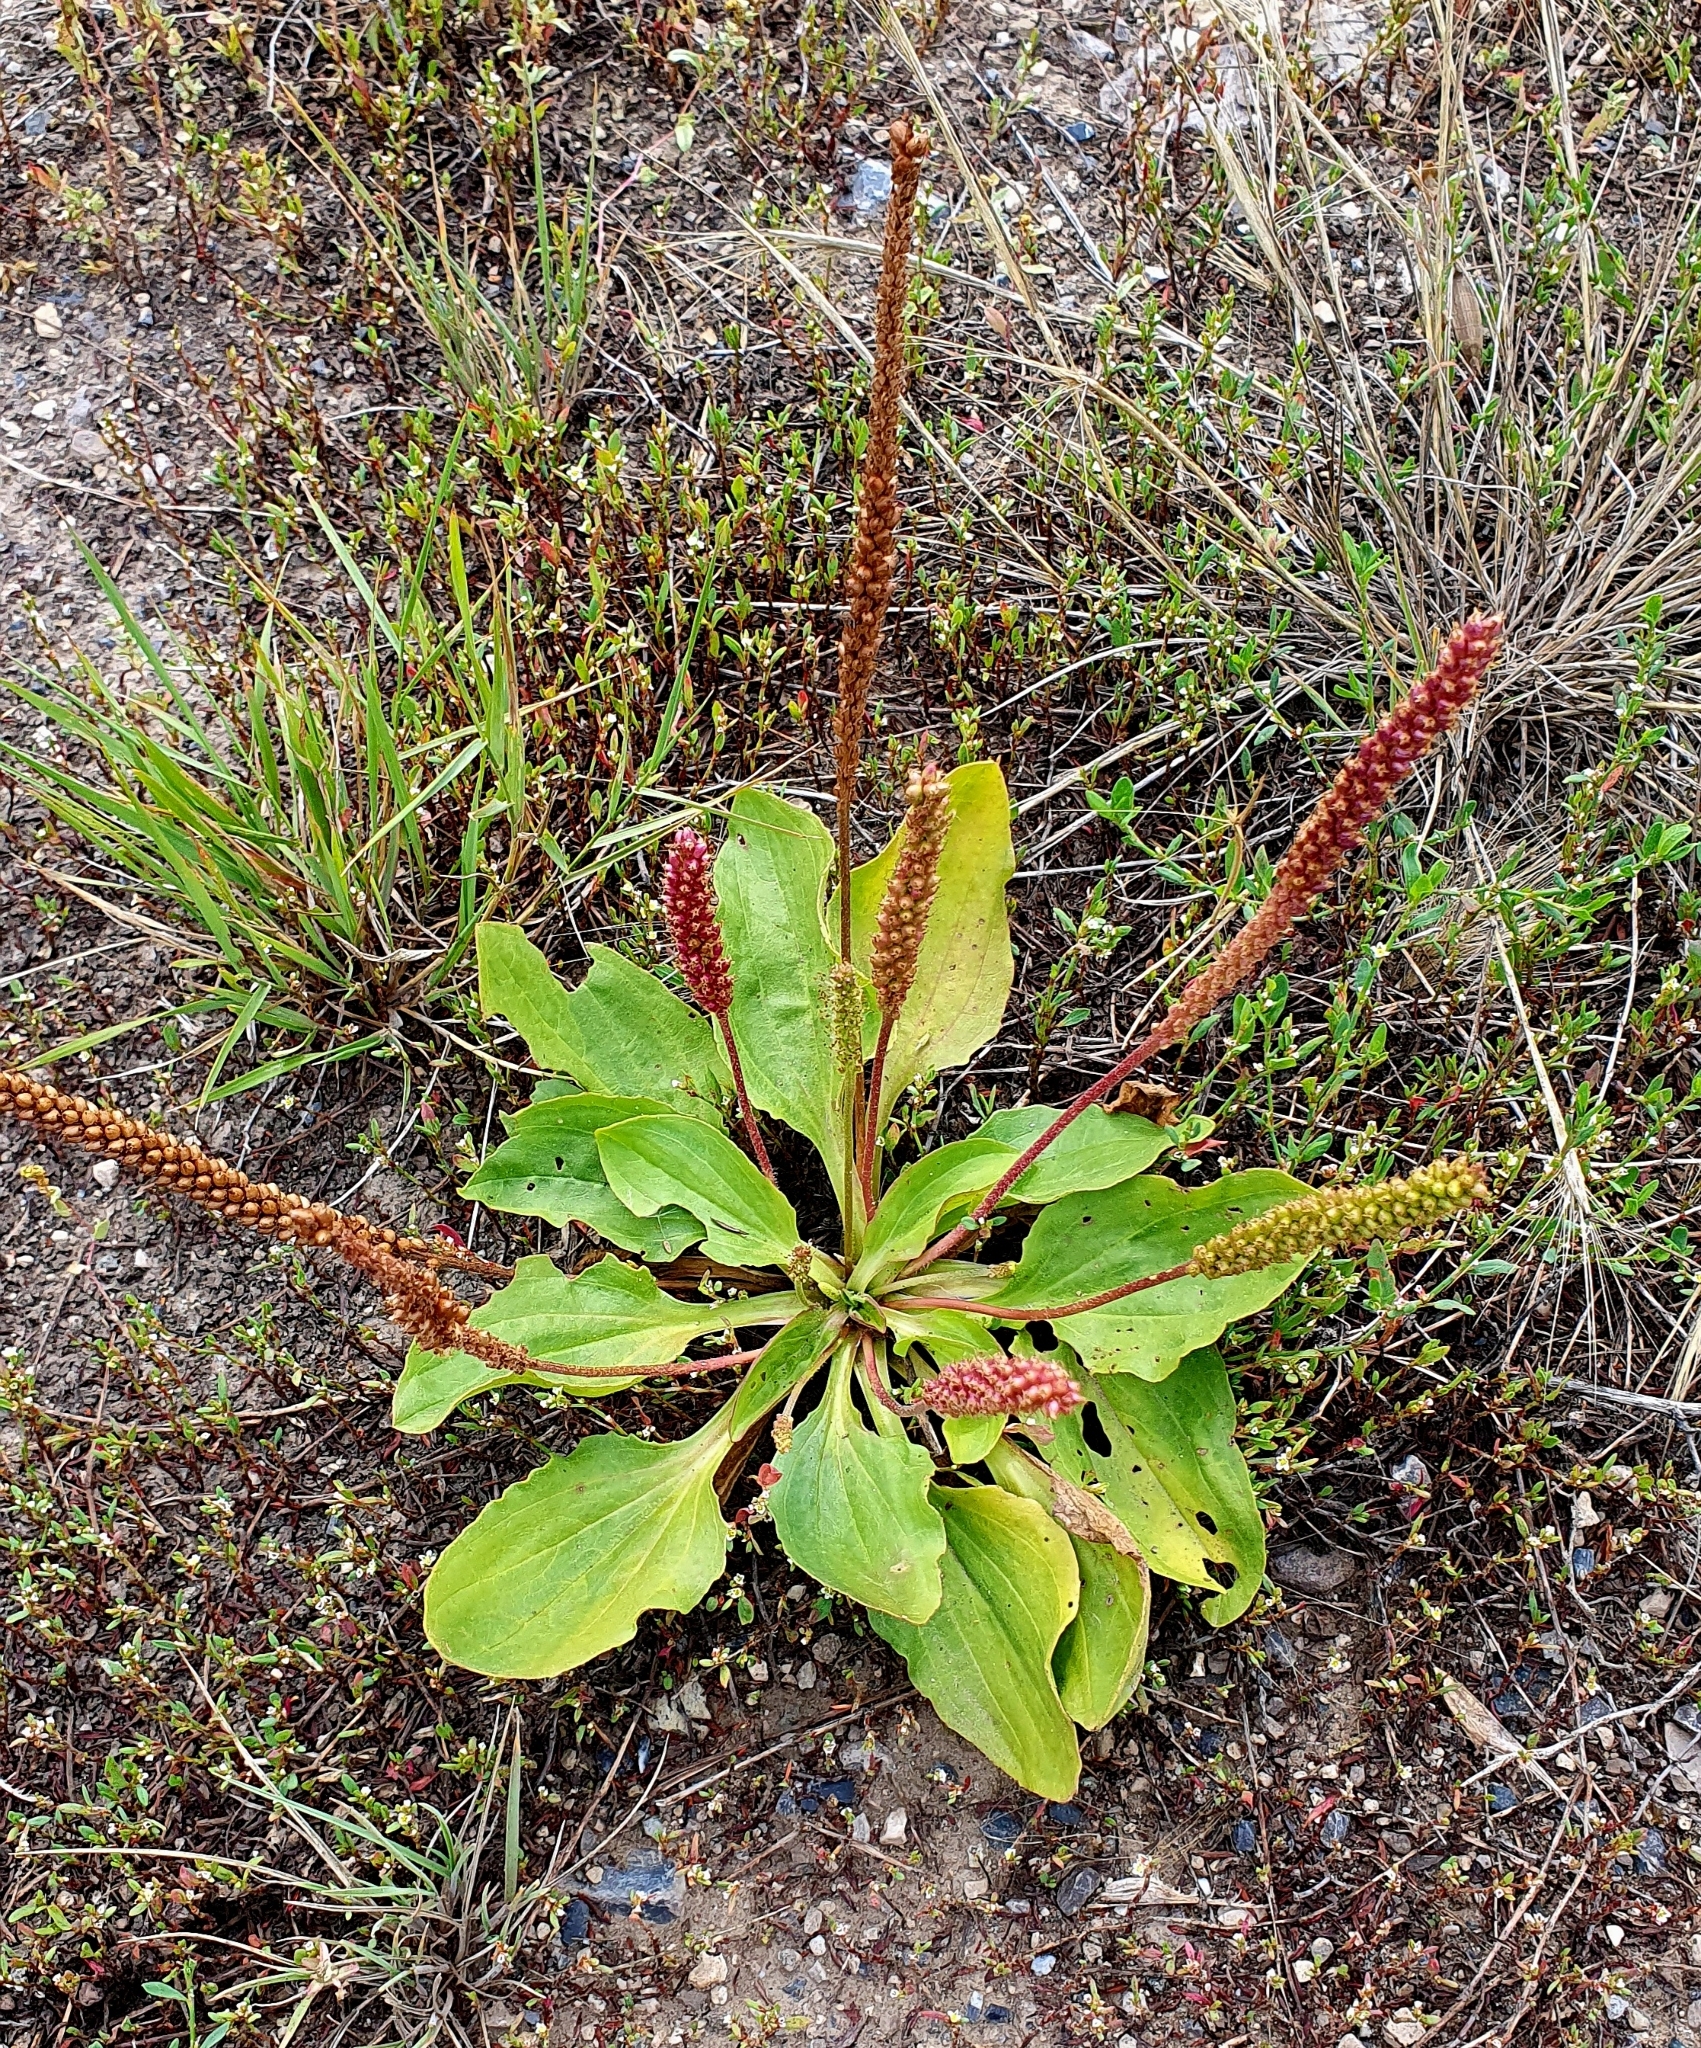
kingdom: Plantae
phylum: Tracheophyta
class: Magnoliopsida
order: Lamiales
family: Plantaginaceae
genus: Plantago
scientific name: Plantago major
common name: Common plantain
